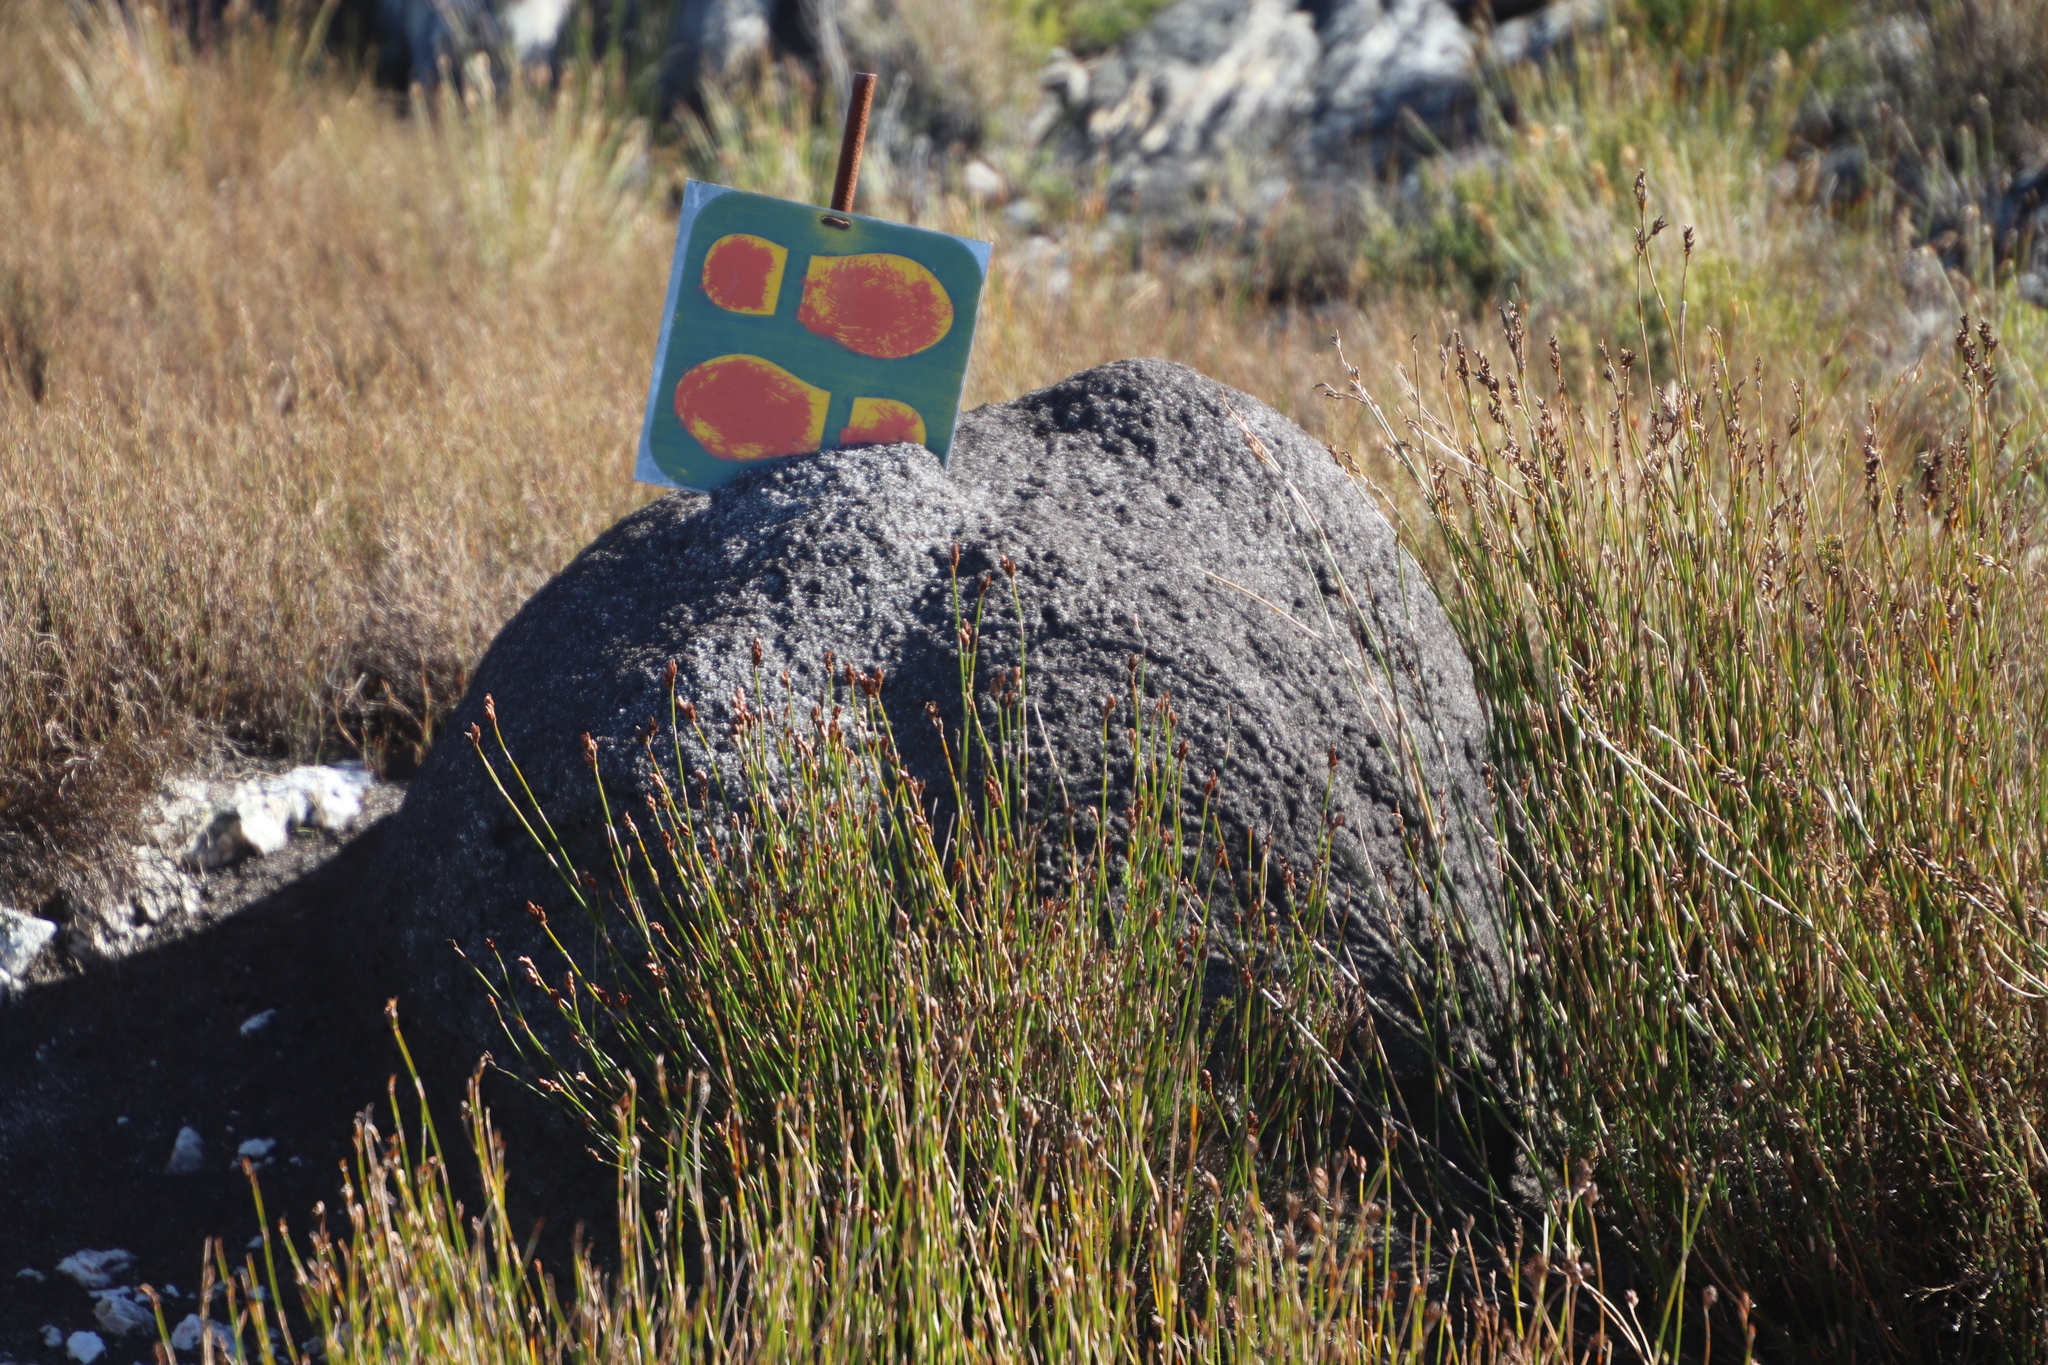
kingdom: Animalia
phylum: Arthropoda
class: Insecta
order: Blattodea
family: Termitidae
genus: Amitermes
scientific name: Amitermes hastatus
